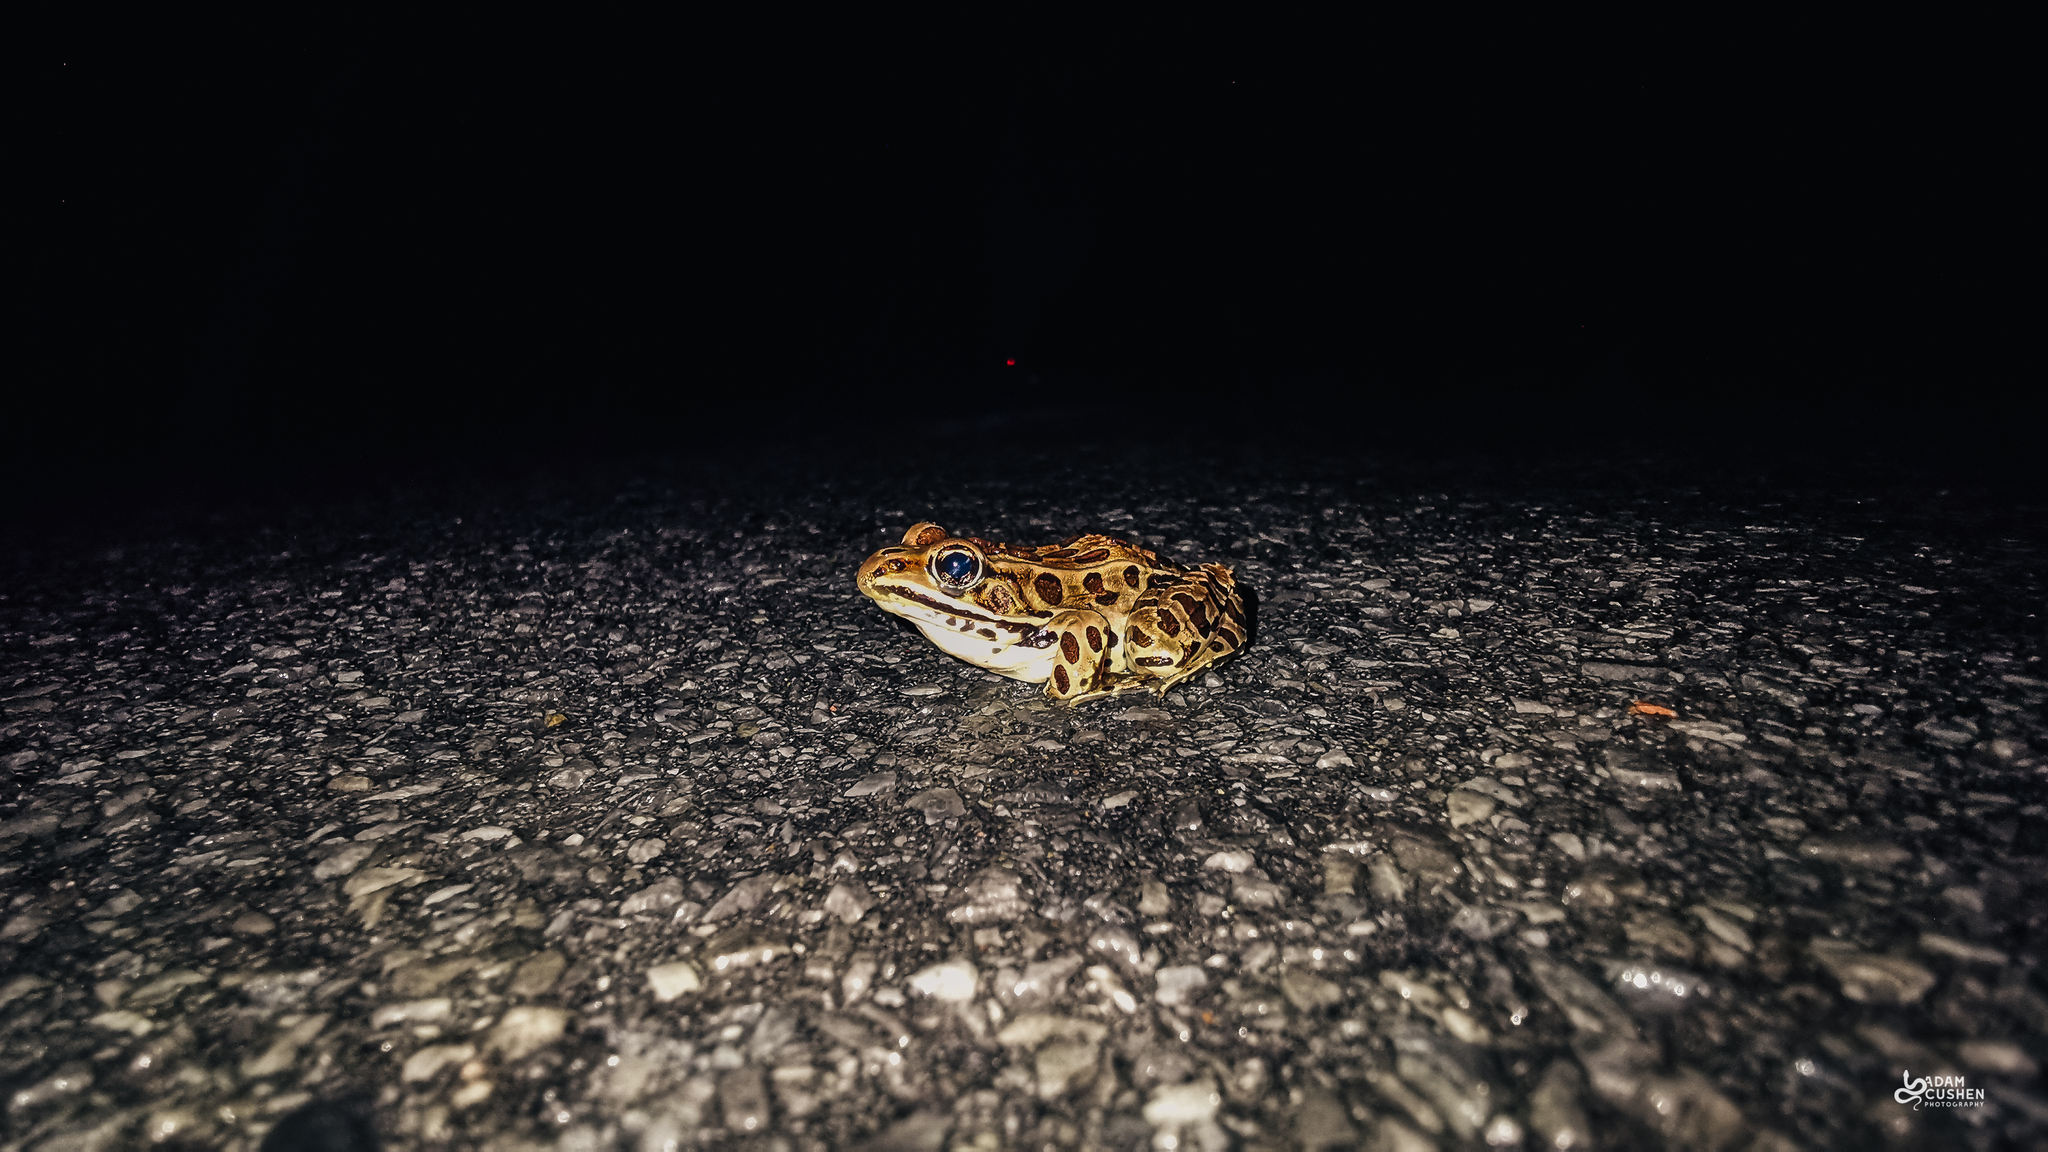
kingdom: Animalia
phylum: Chordata
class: Amphibia
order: Anura
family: Ranidae
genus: Lithobates
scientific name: Lithobates pipiens
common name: Northern leopard frog
